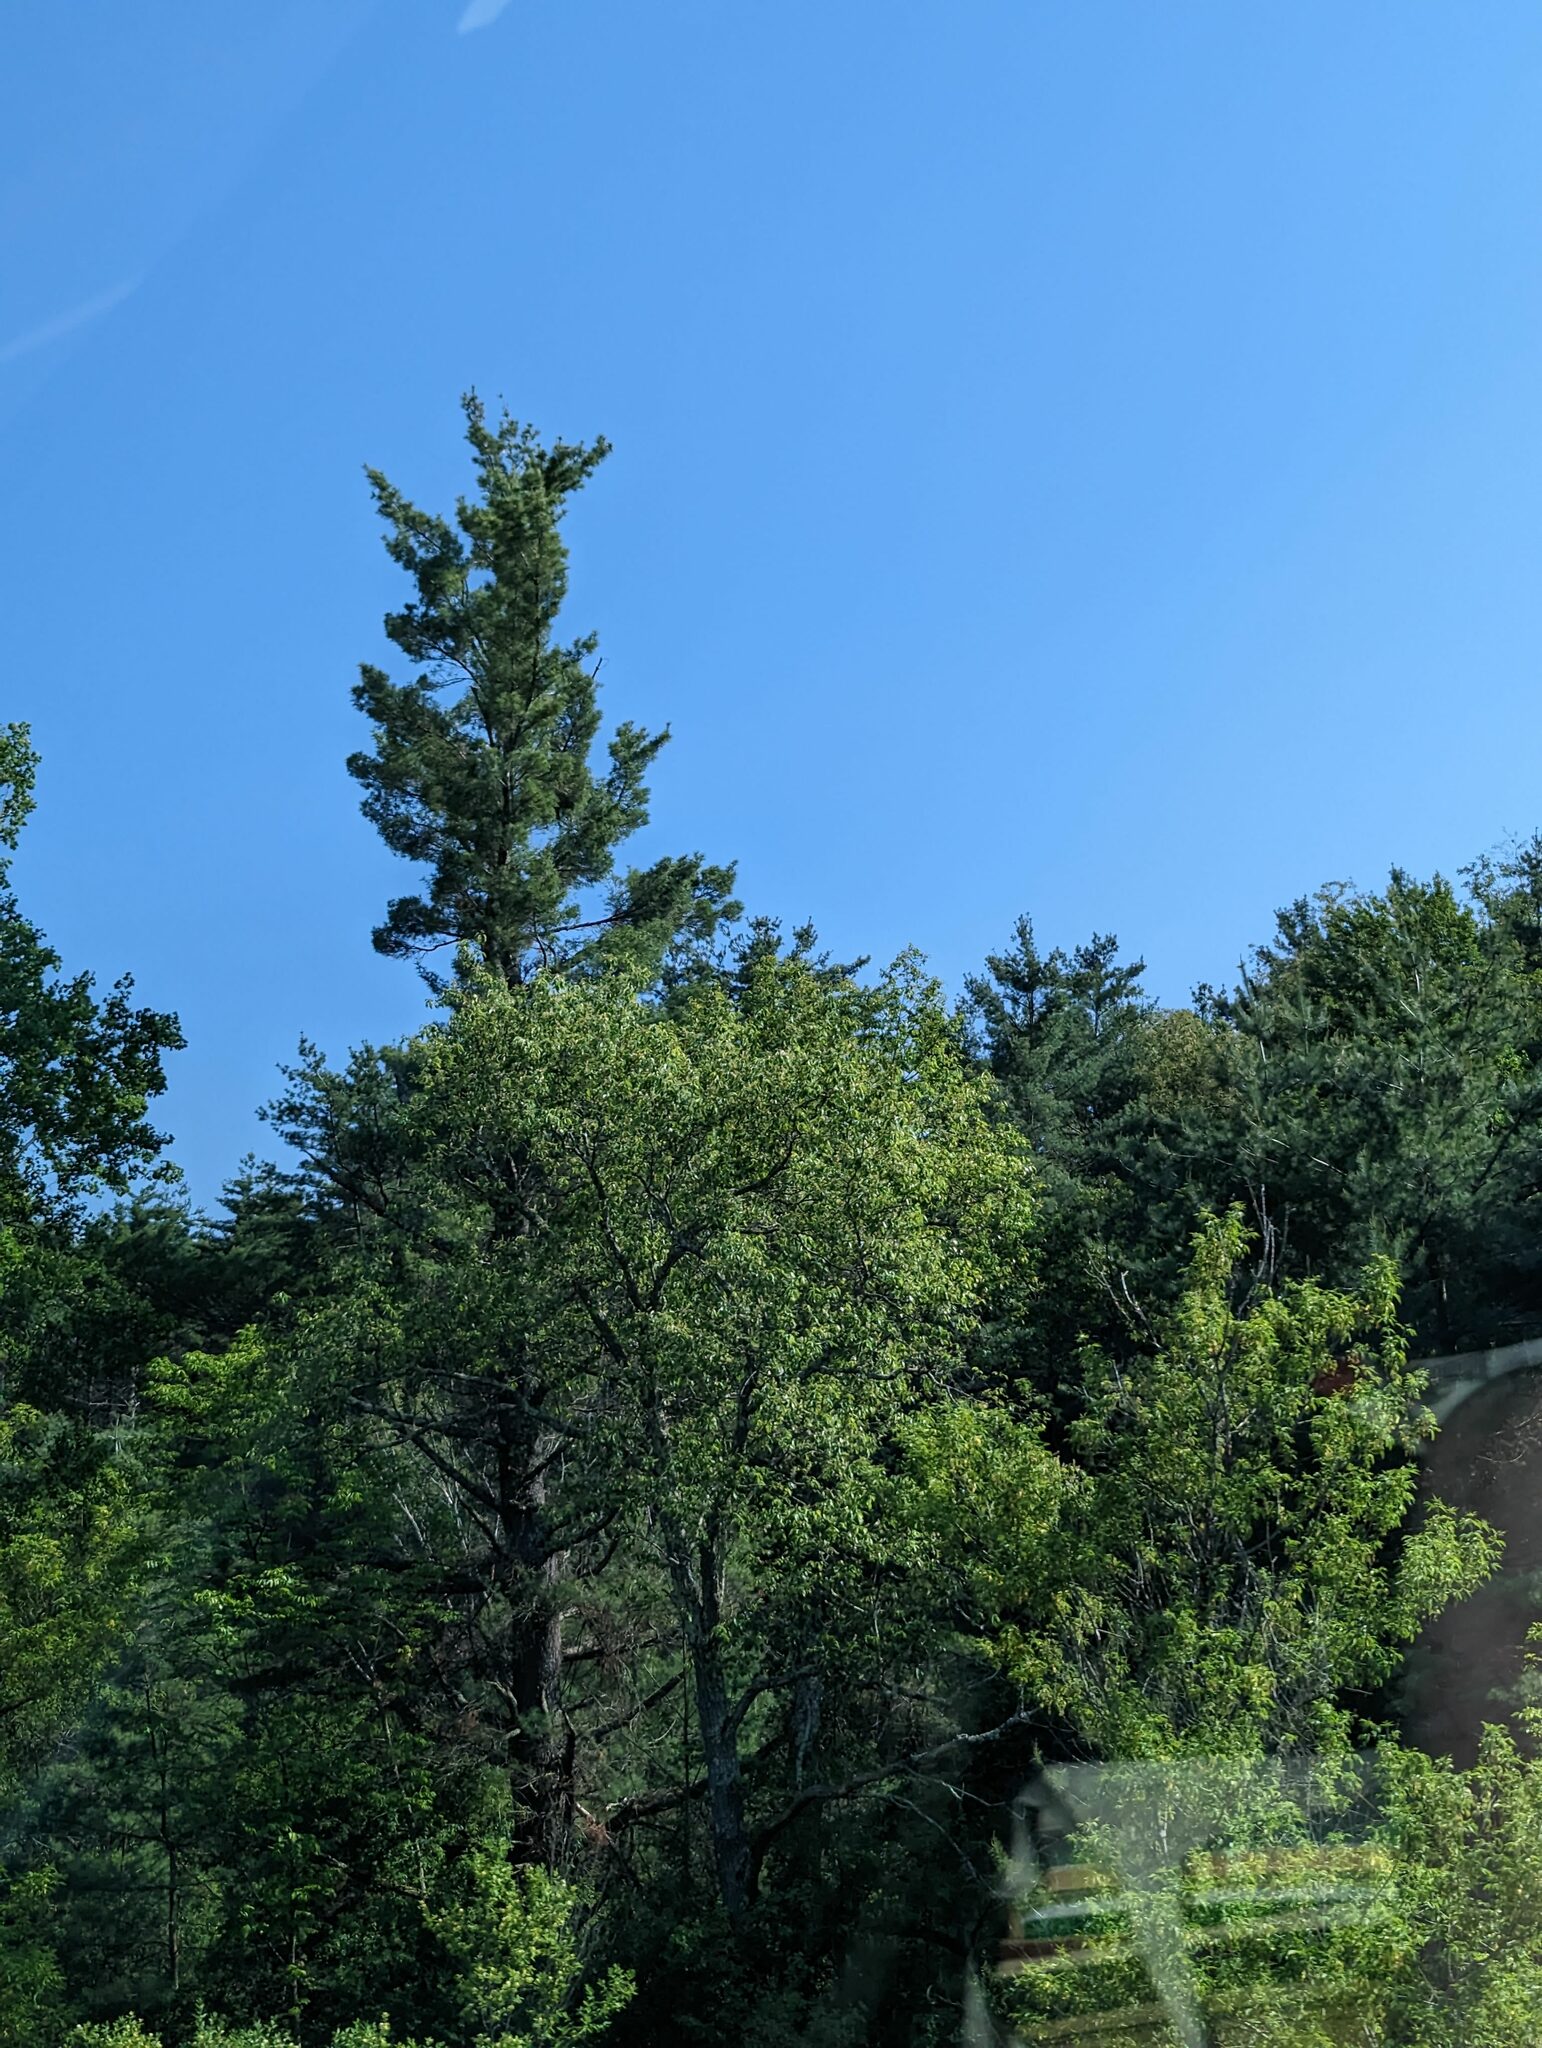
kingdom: Plantae
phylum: Tracheophyta
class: Pinopsida
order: Pinales
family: Pinaceae
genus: Pinus
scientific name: Pinus strobus
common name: Weymouth pine
